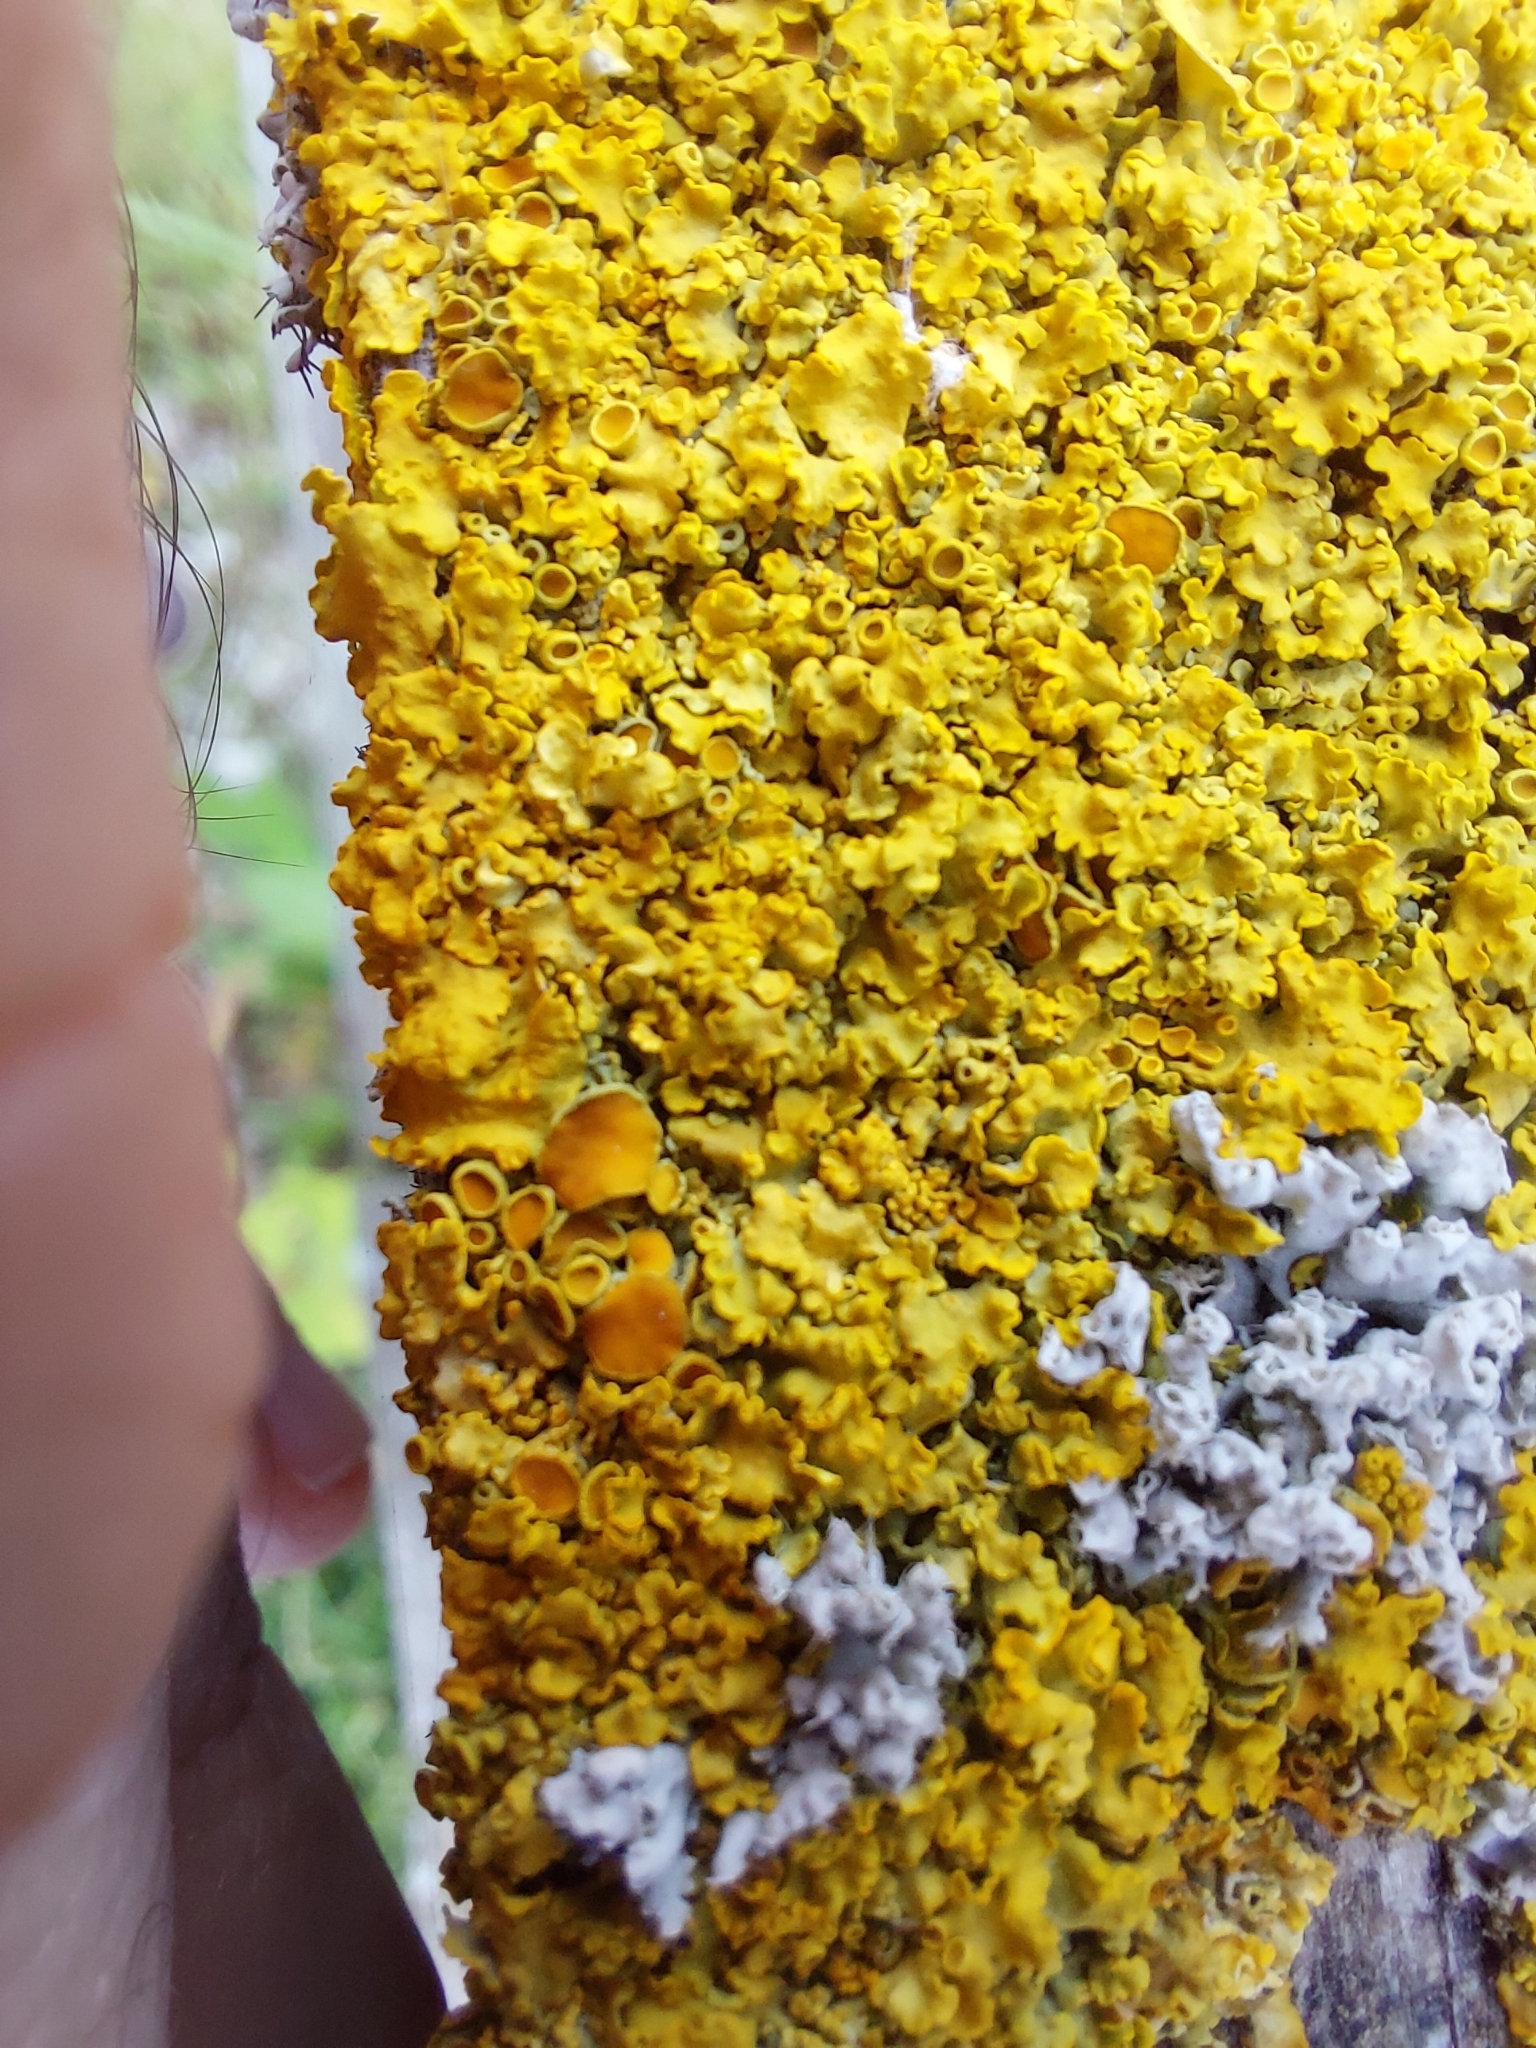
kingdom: Fungi
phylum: Ascomycota
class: Lecanoromycetes
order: Teloschistales
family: Teloschistaceae
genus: Xanthoria
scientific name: Xanthoria parietina
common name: Common orange lichen
